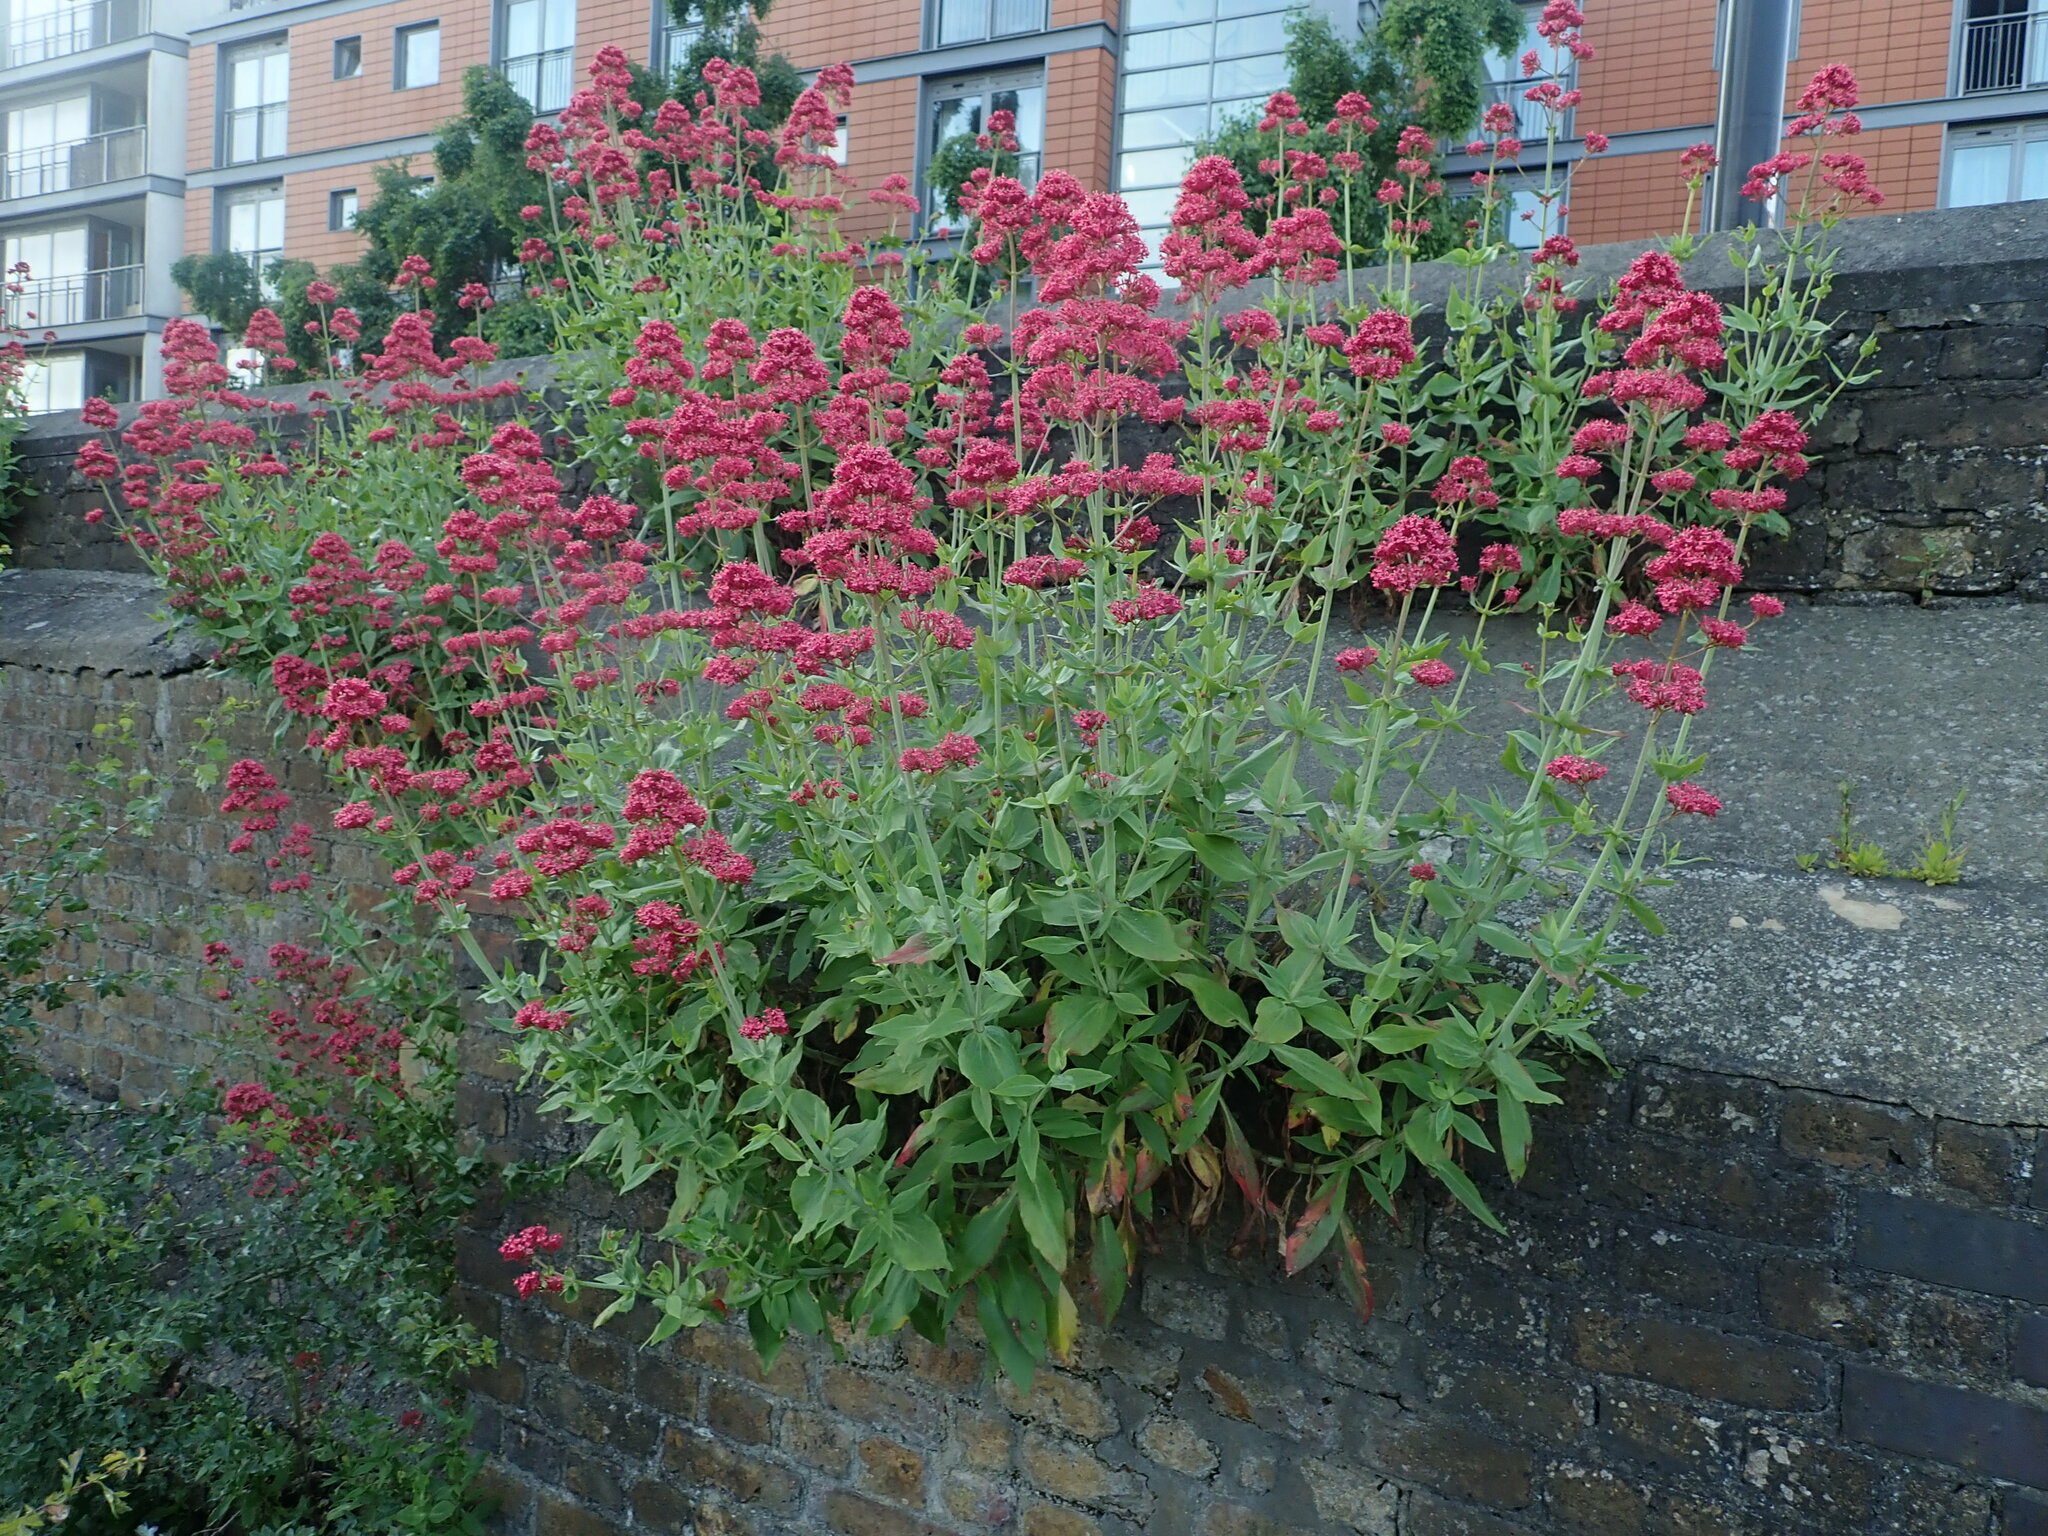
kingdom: Plantae
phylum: Tracheophyta
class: Magnoliopsida
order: Dipsacales
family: Caprifoliaceae
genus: Centranthus
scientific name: Centranthus ruber
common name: Red valerian
